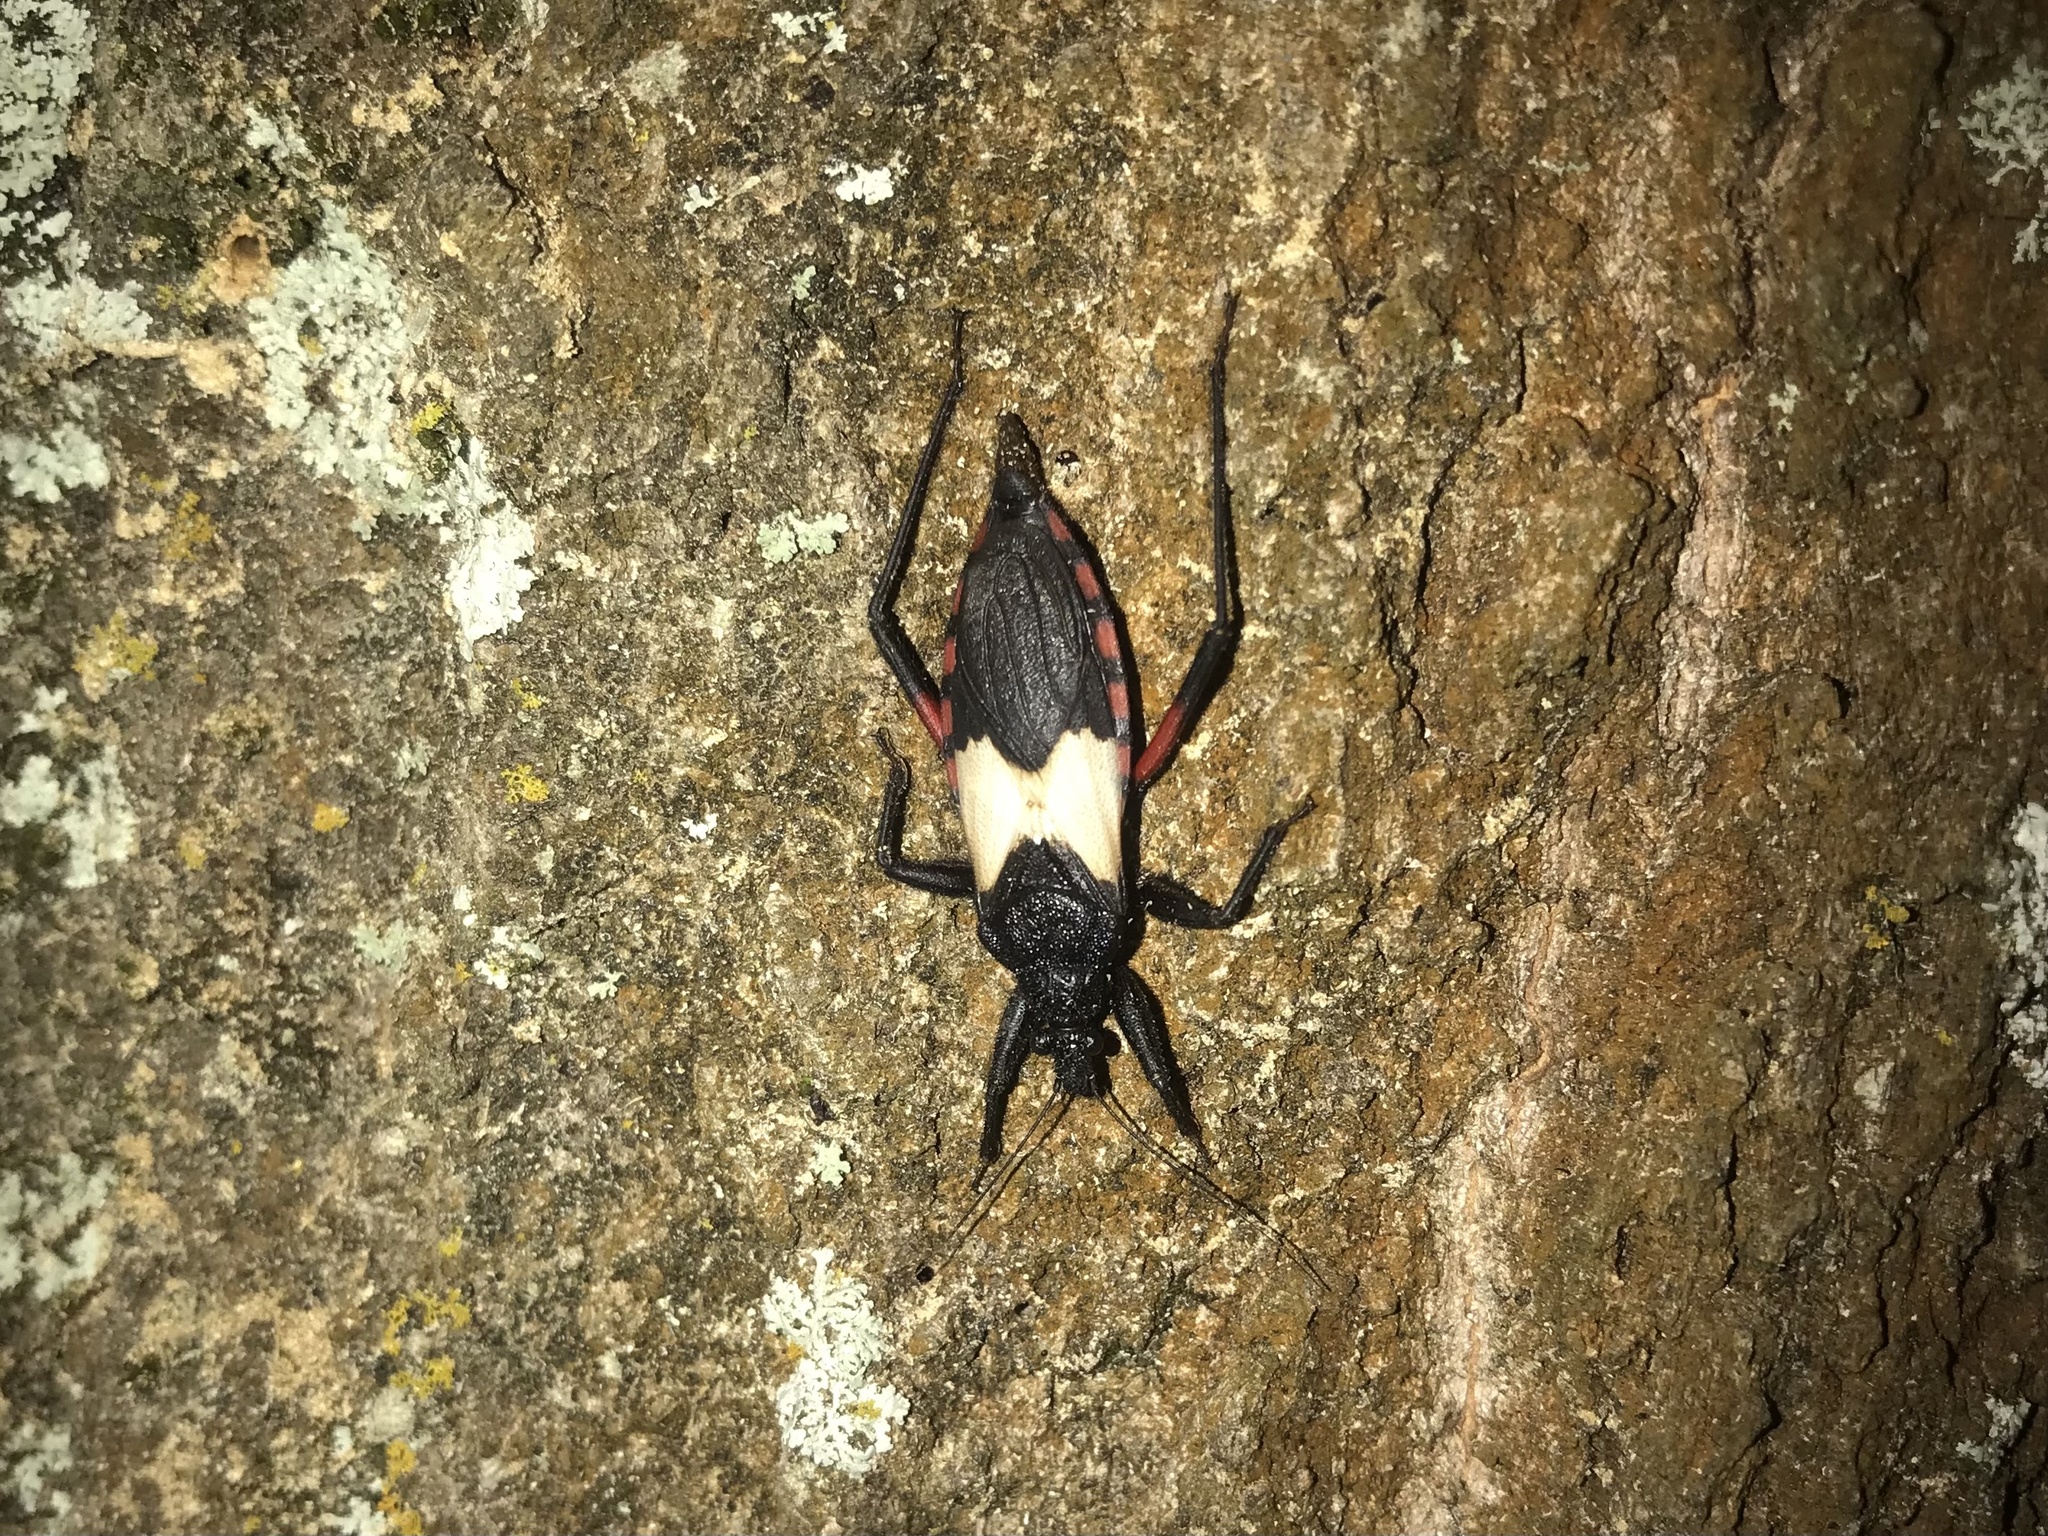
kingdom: Animalia
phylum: Arthropoda
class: Insecta
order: Hemiptera
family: Reduviidae
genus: Microtomus
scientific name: Microtomus purcis
